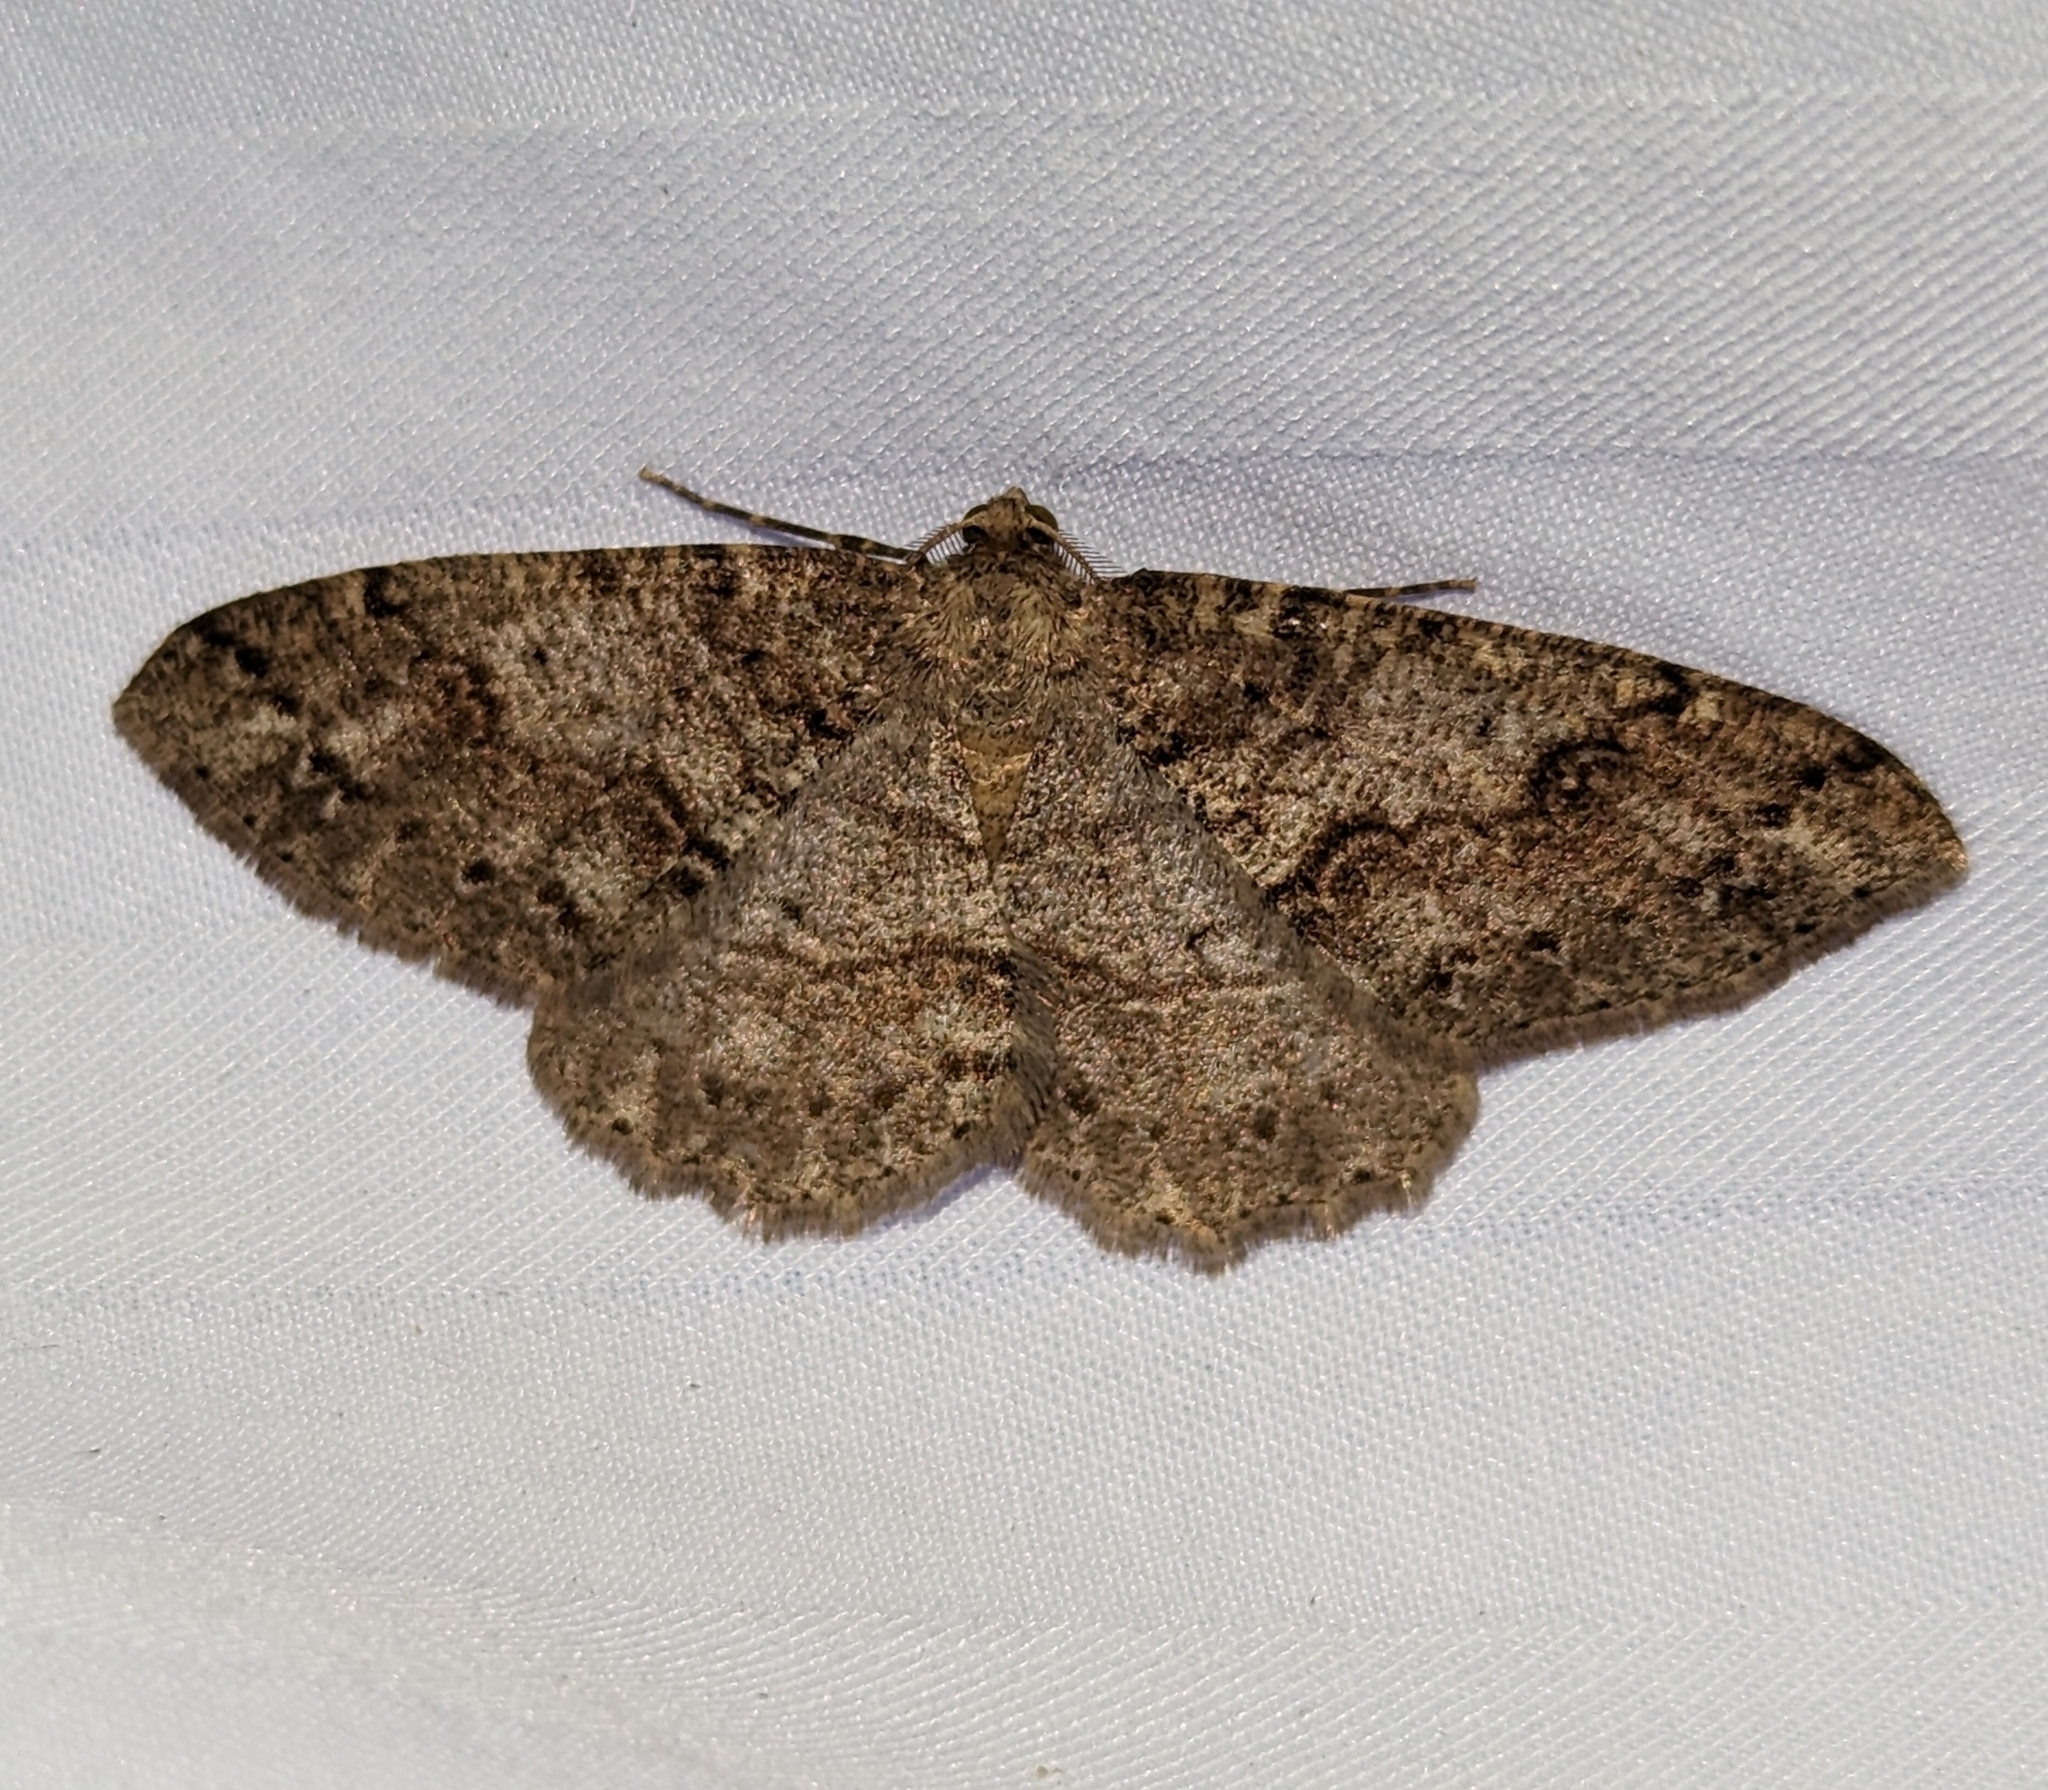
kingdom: Animalia
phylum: Arthropoda
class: Insecta
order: Lepidoptera
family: Geometridae
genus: Melanolophia
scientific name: Melanolophia imitata
